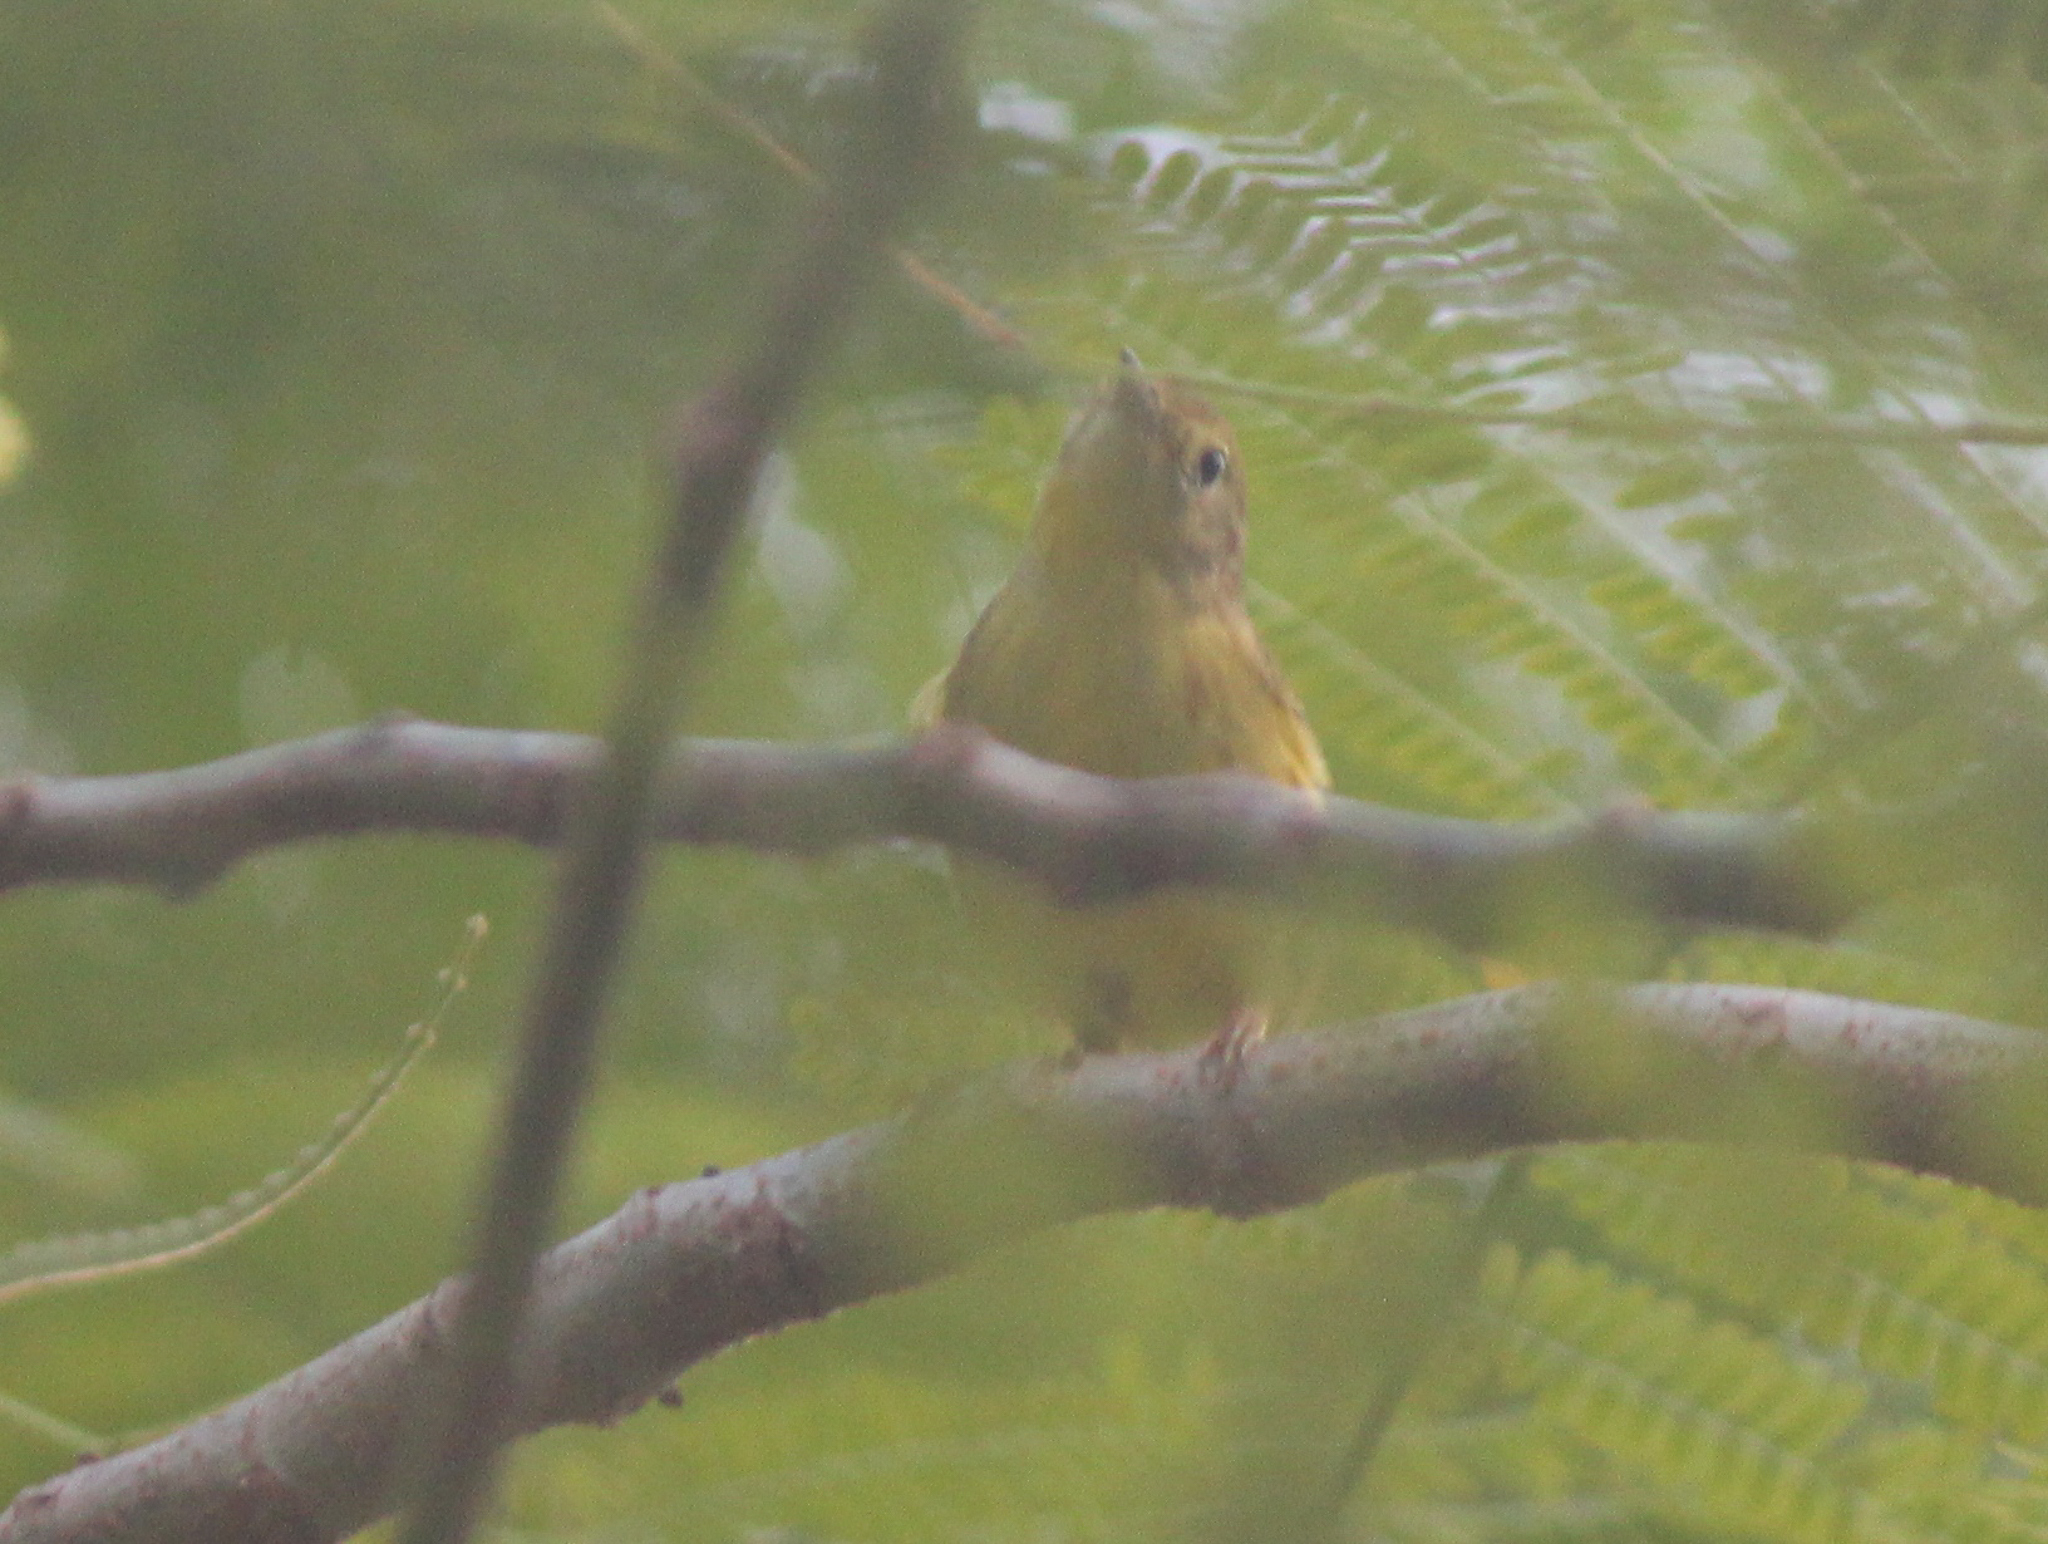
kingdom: Animalia
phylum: Chordata
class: Aves
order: Passeriformes
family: Parulidae
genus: Setophaga
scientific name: Setophaga petechia
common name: Yellow warbler
